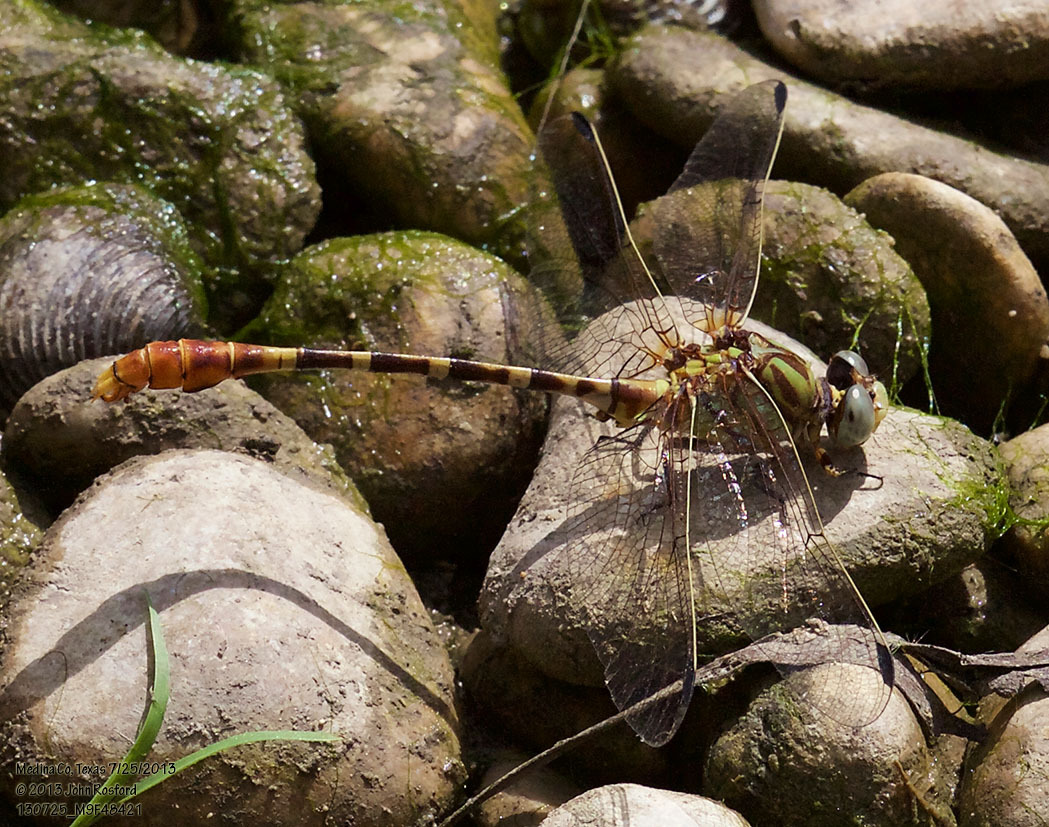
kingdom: Animalia
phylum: Arthropoda
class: Insecta
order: Odonata
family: Gomphidae
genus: Erpetogomphus
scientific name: Erpetogomphus designatus
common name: Eastern ringtail
